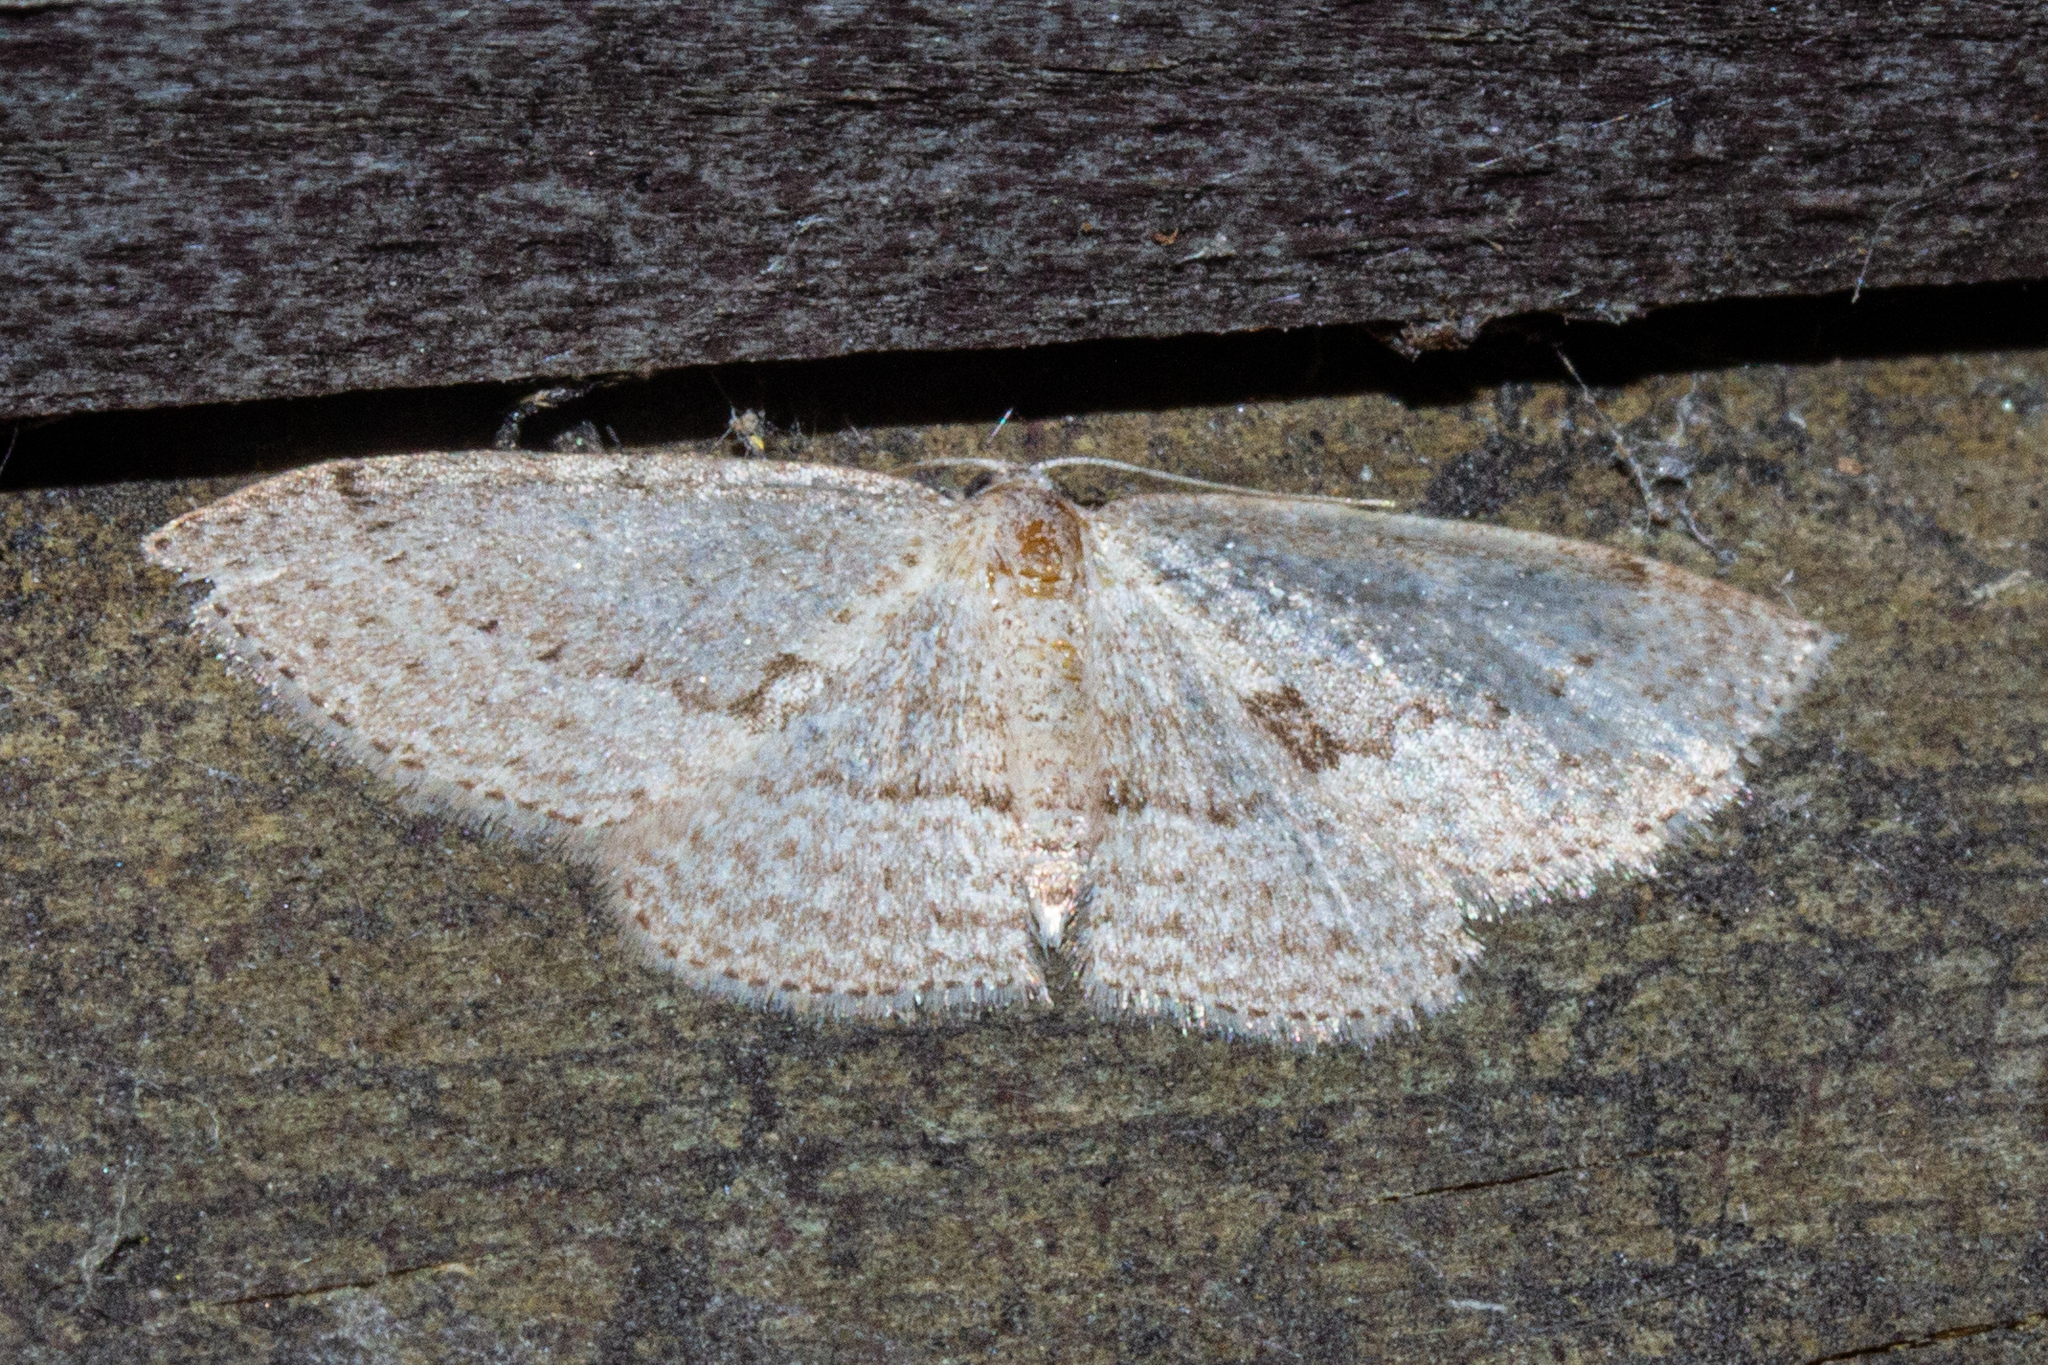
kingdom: Animalia
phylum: Arthropoda
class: Insecta
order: Lepidoptera
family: Geometridae
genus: Poecilasthena
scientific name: Poecilasthena schistaria
